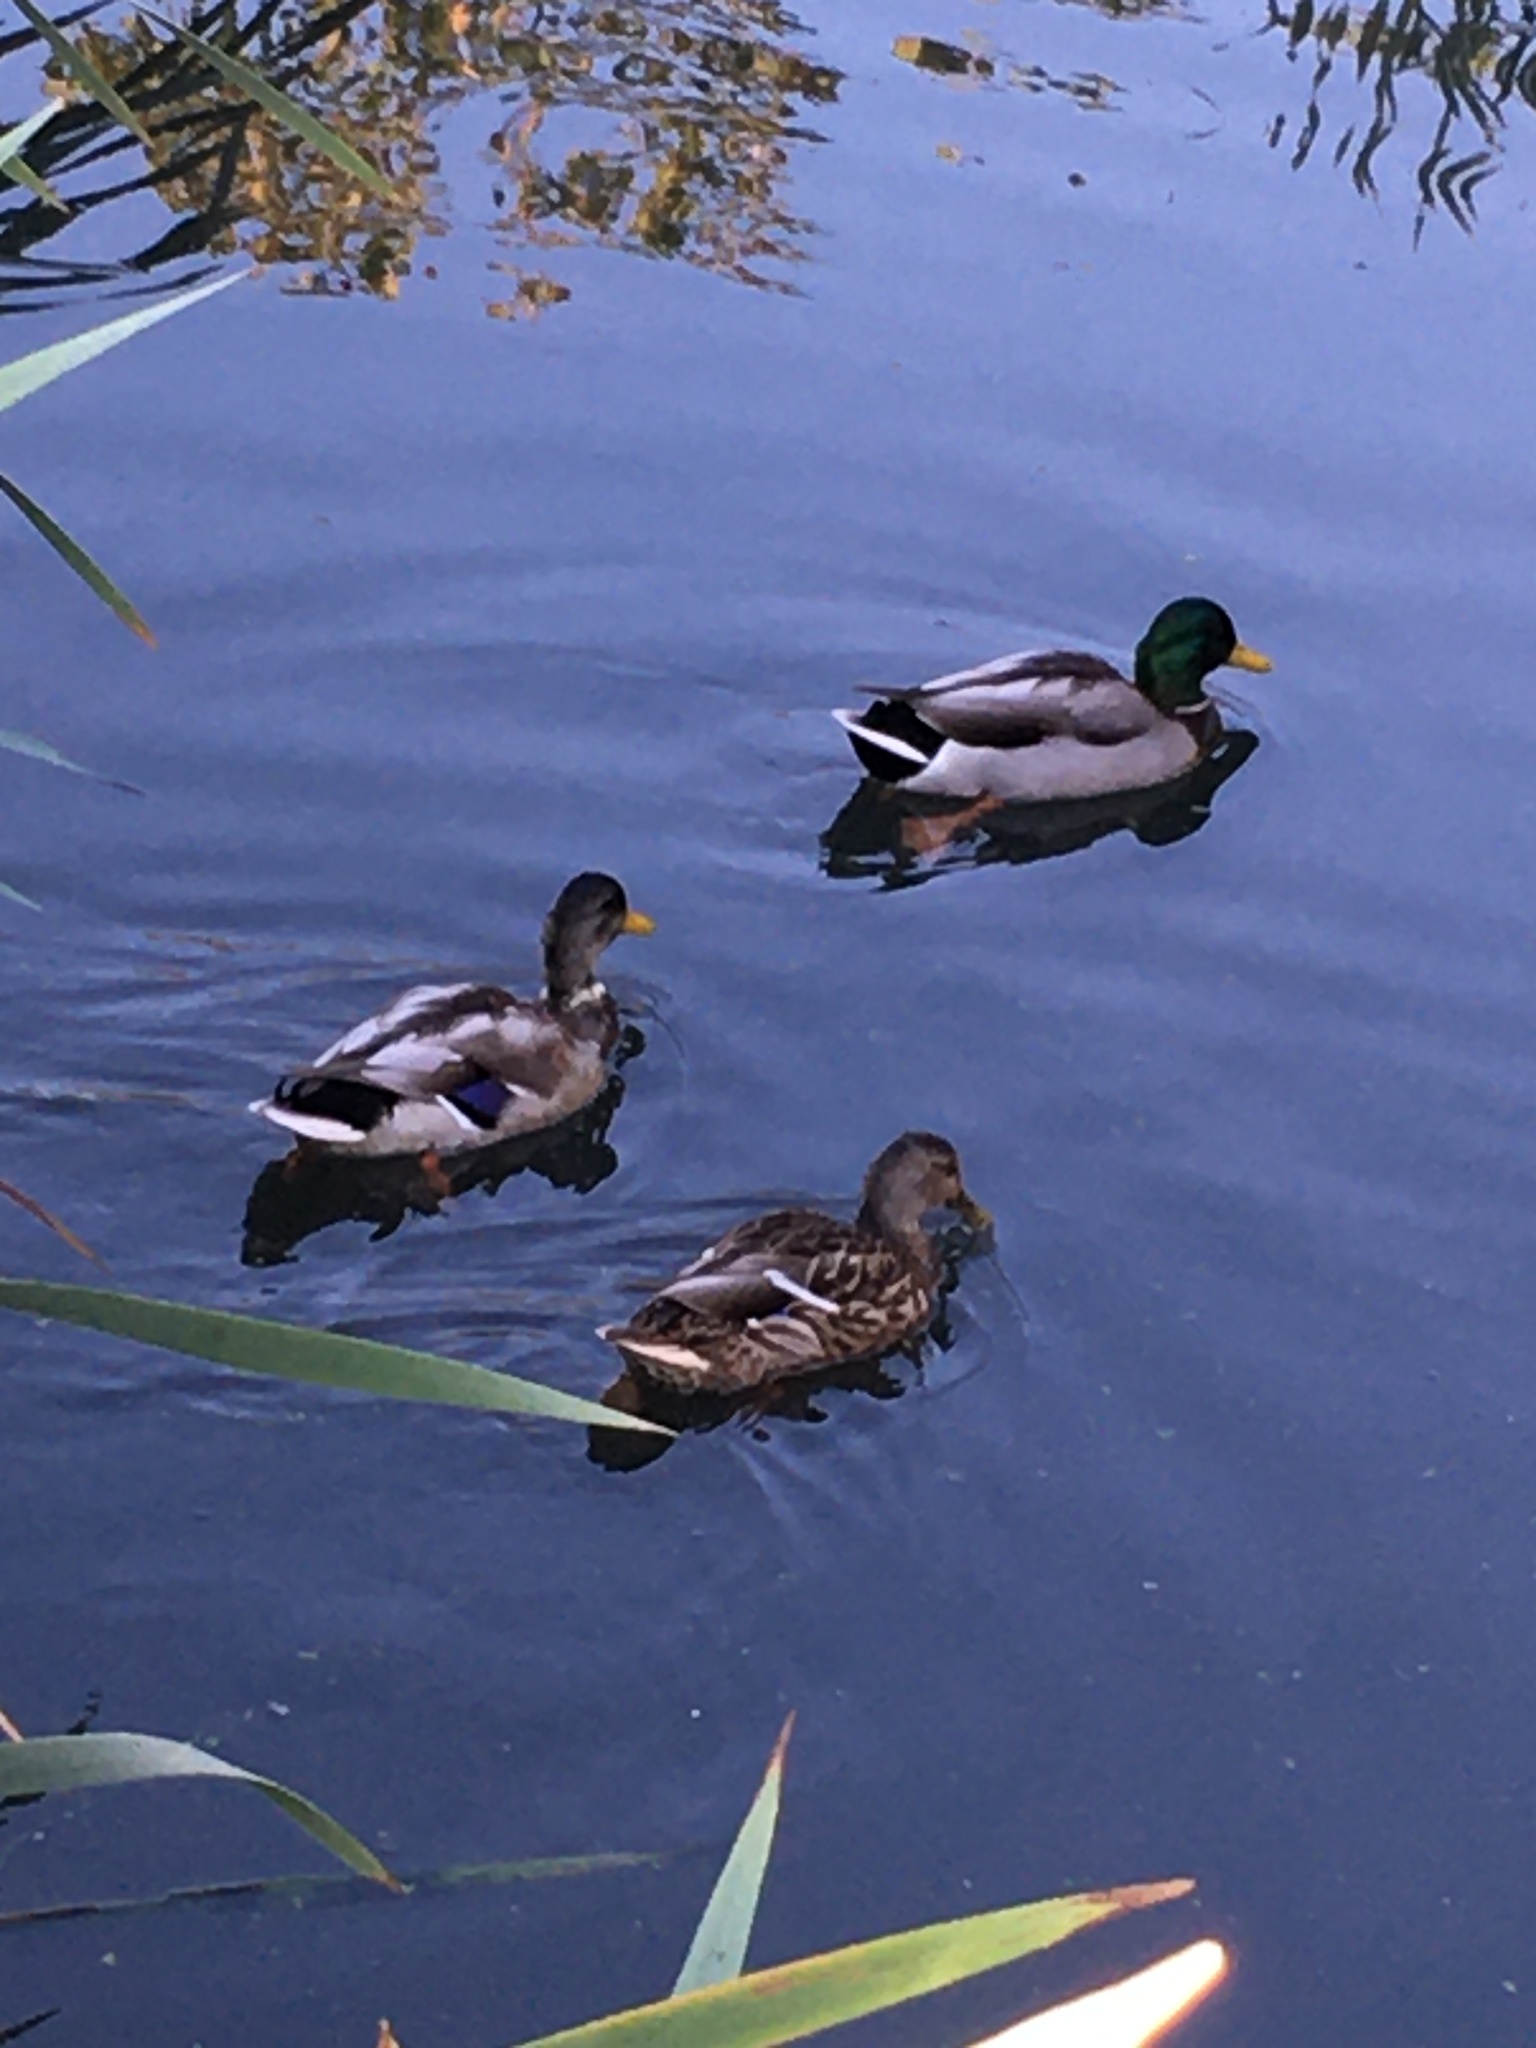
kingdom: Animalia
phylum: Chordata
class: Aves
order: Anseriformes
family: Anatidae
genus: Anas
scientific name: Anas platyrhynchos
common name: Mallard
